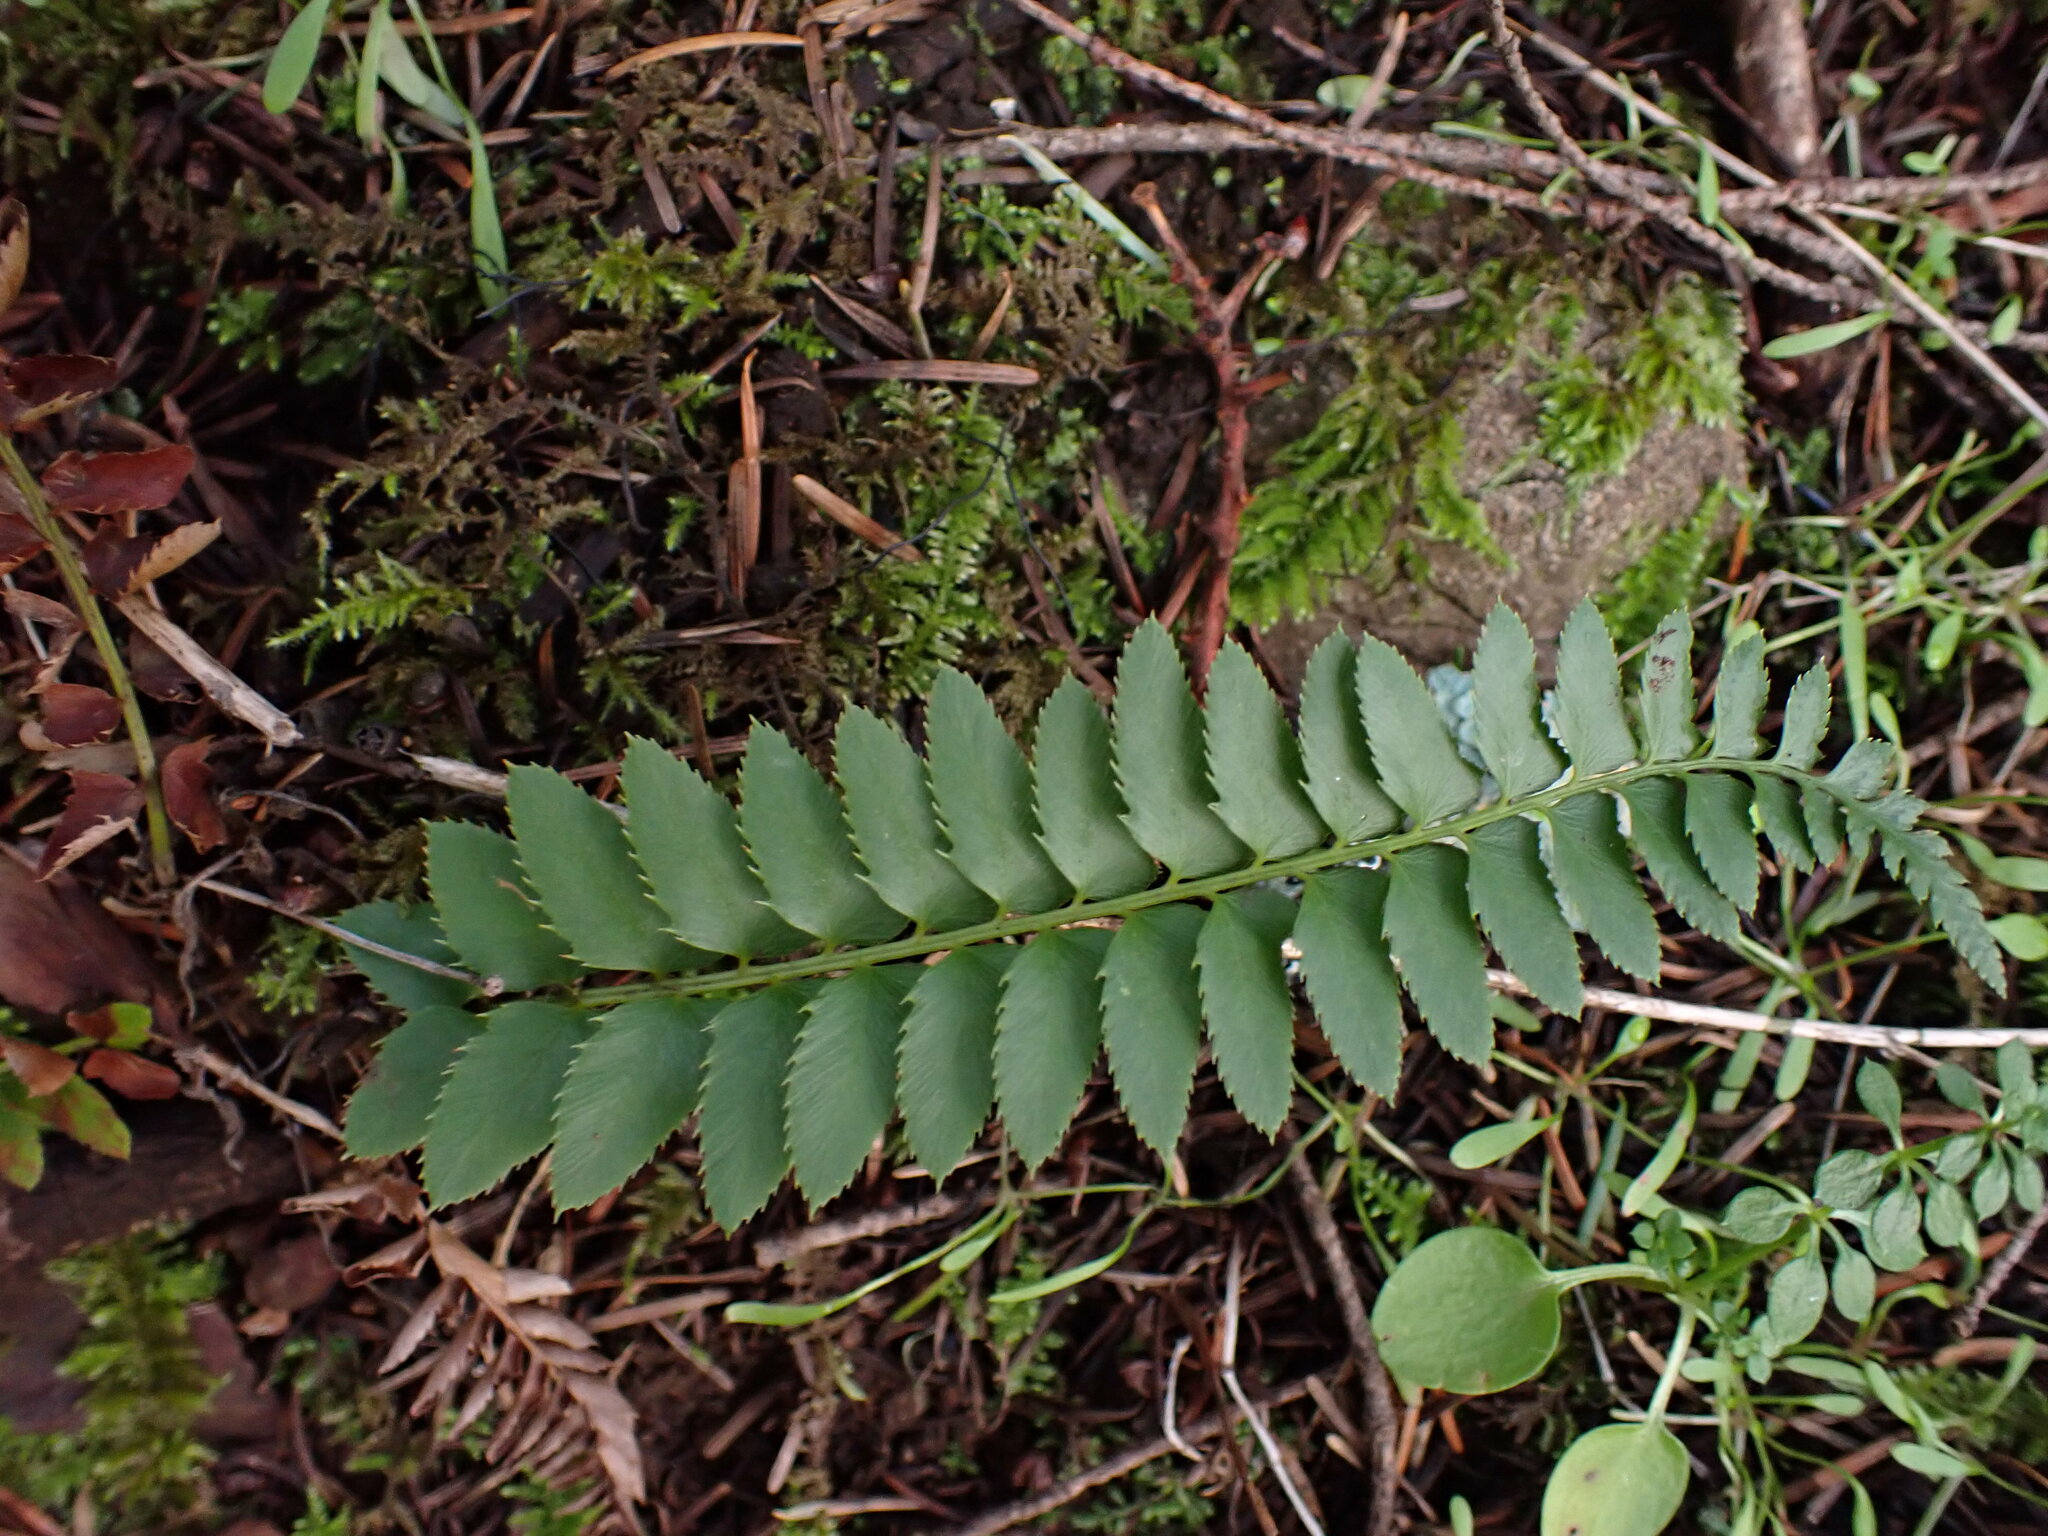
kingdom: Plantae
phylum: Tracheophyta
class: Polypodiopsida
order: Polypodiales
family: Dryopteridaceae
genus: Polystichum
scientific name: Polystichum imbricans
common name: Dwarf western sword fern
